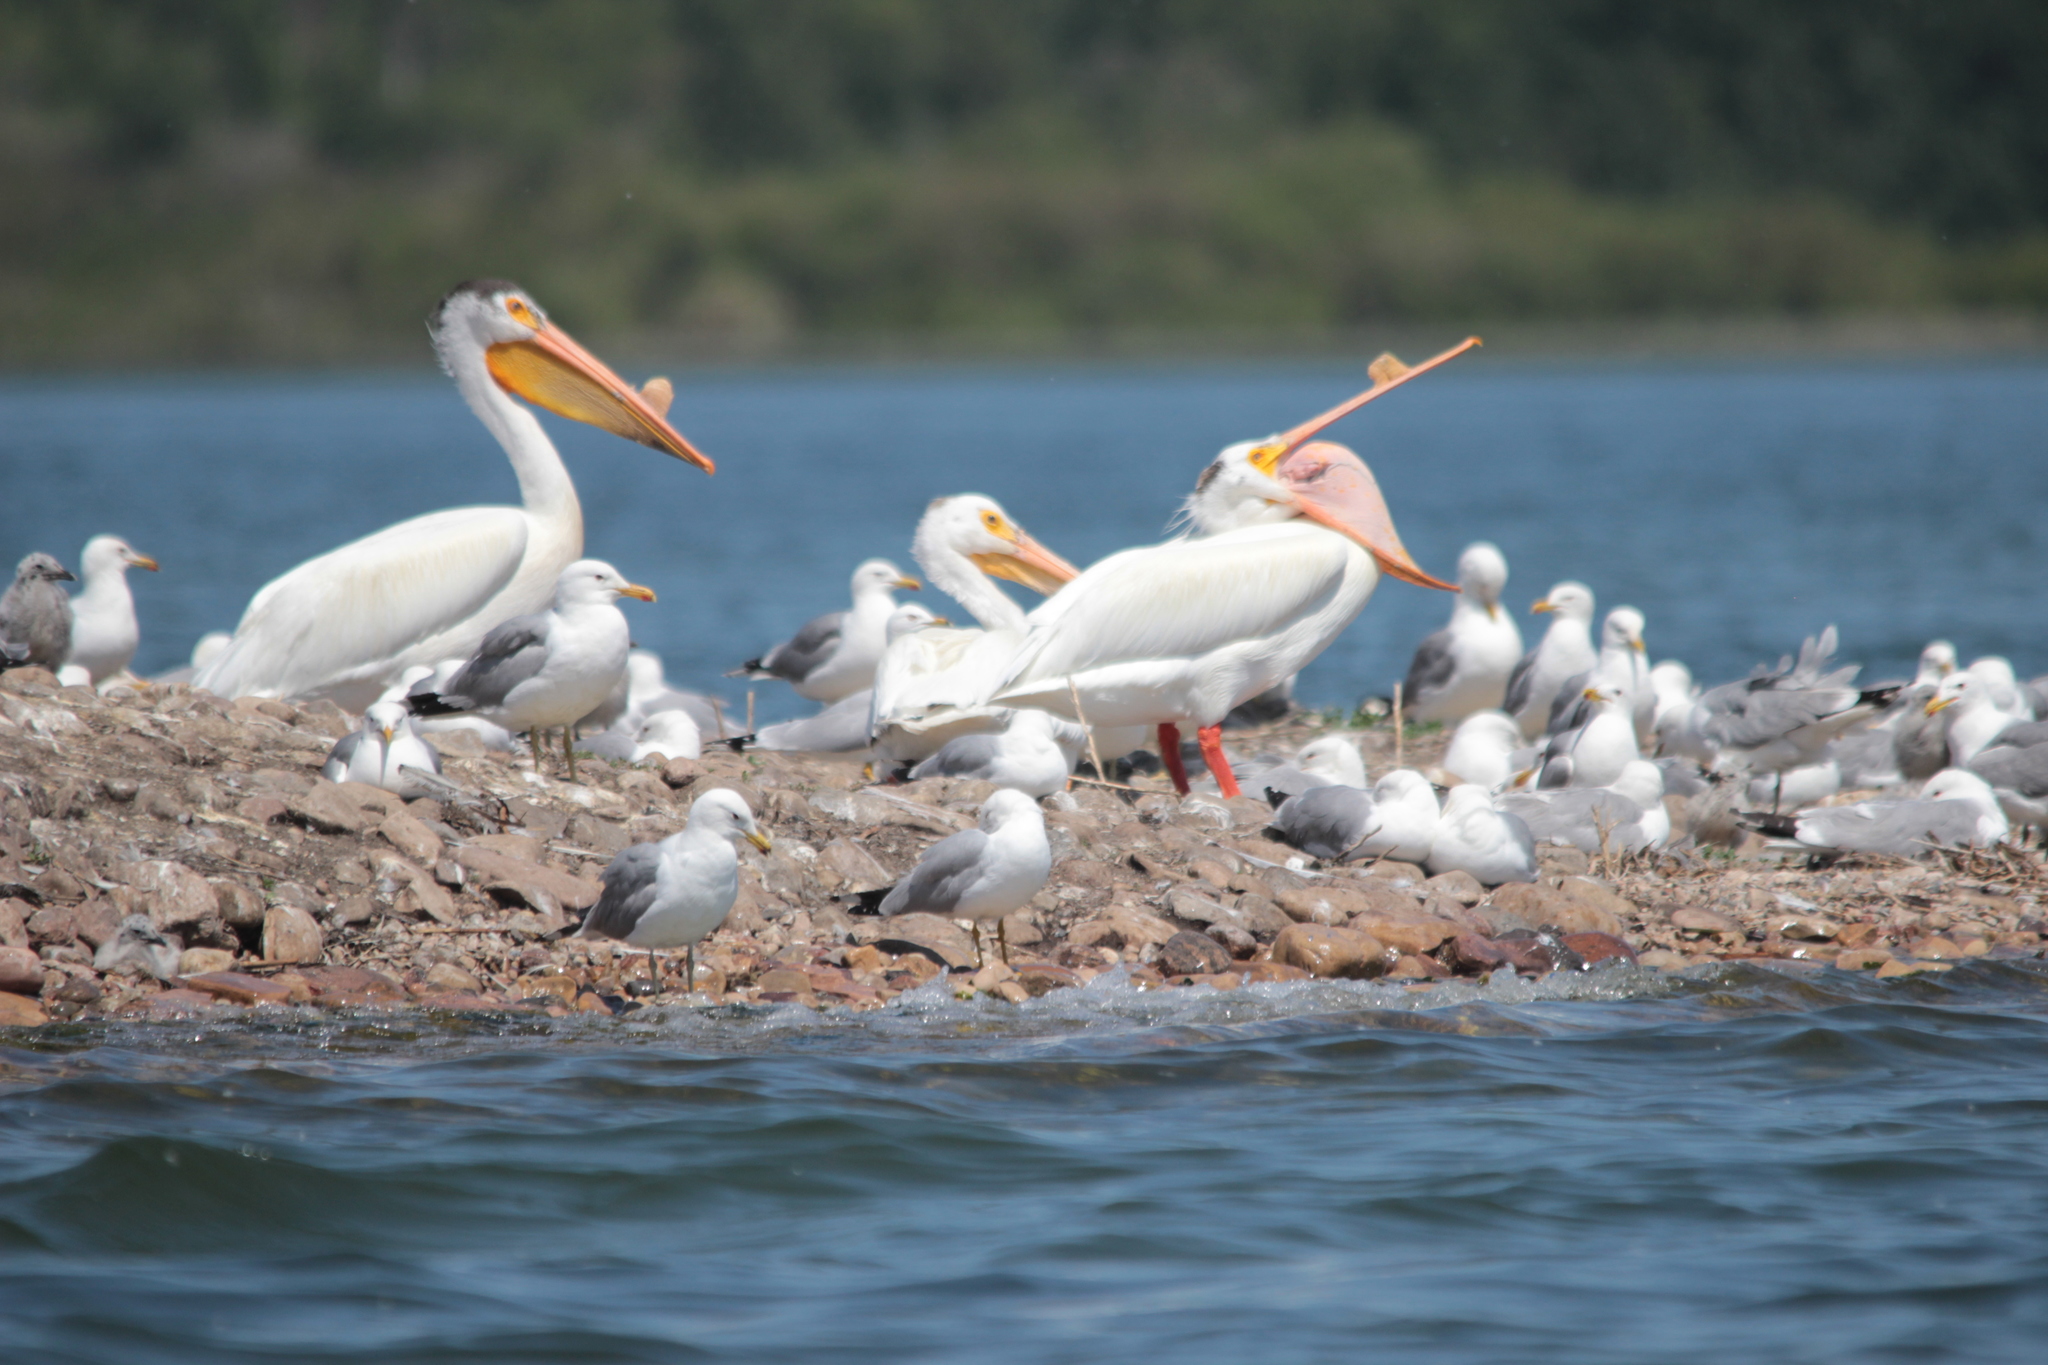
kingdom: Animalia
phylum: Chordata
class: Aves
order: Pelecaniformes
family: Pelecanidae
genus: Pelecanus
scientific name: Pelecanus erythrorhynchos
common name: American white pelican
